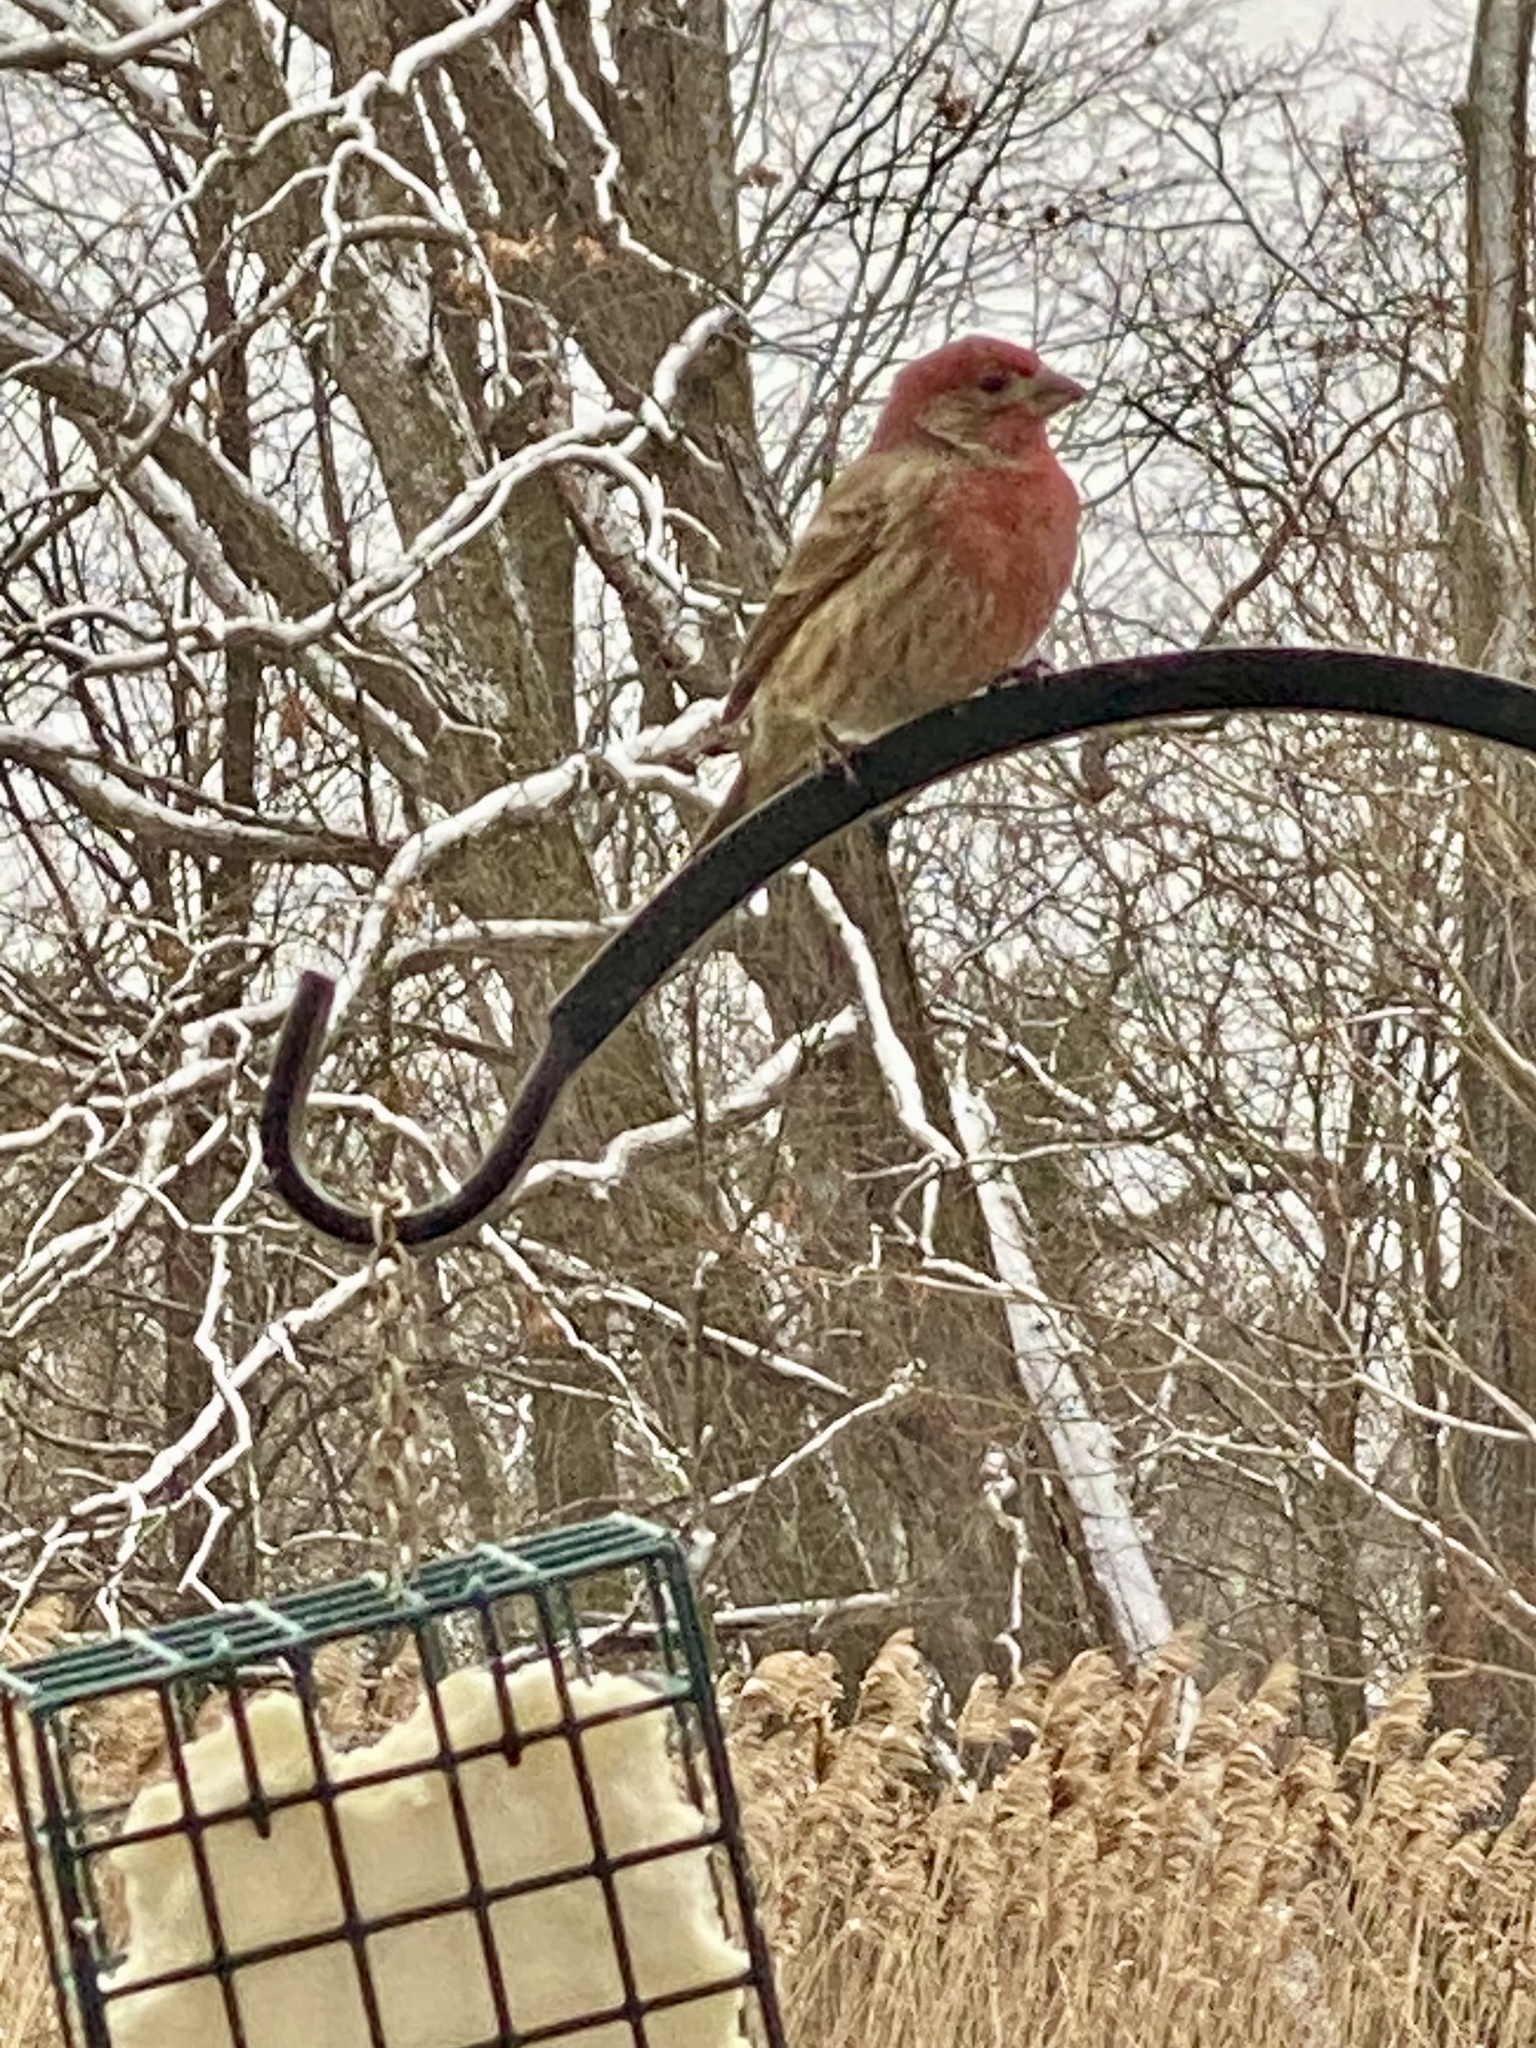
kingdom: Animalia
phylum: Chordata
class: Aves
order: Passeriformes
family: Fringillidae
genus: Haemorhous
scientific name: Haemorhous mexicanus
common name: House finch
